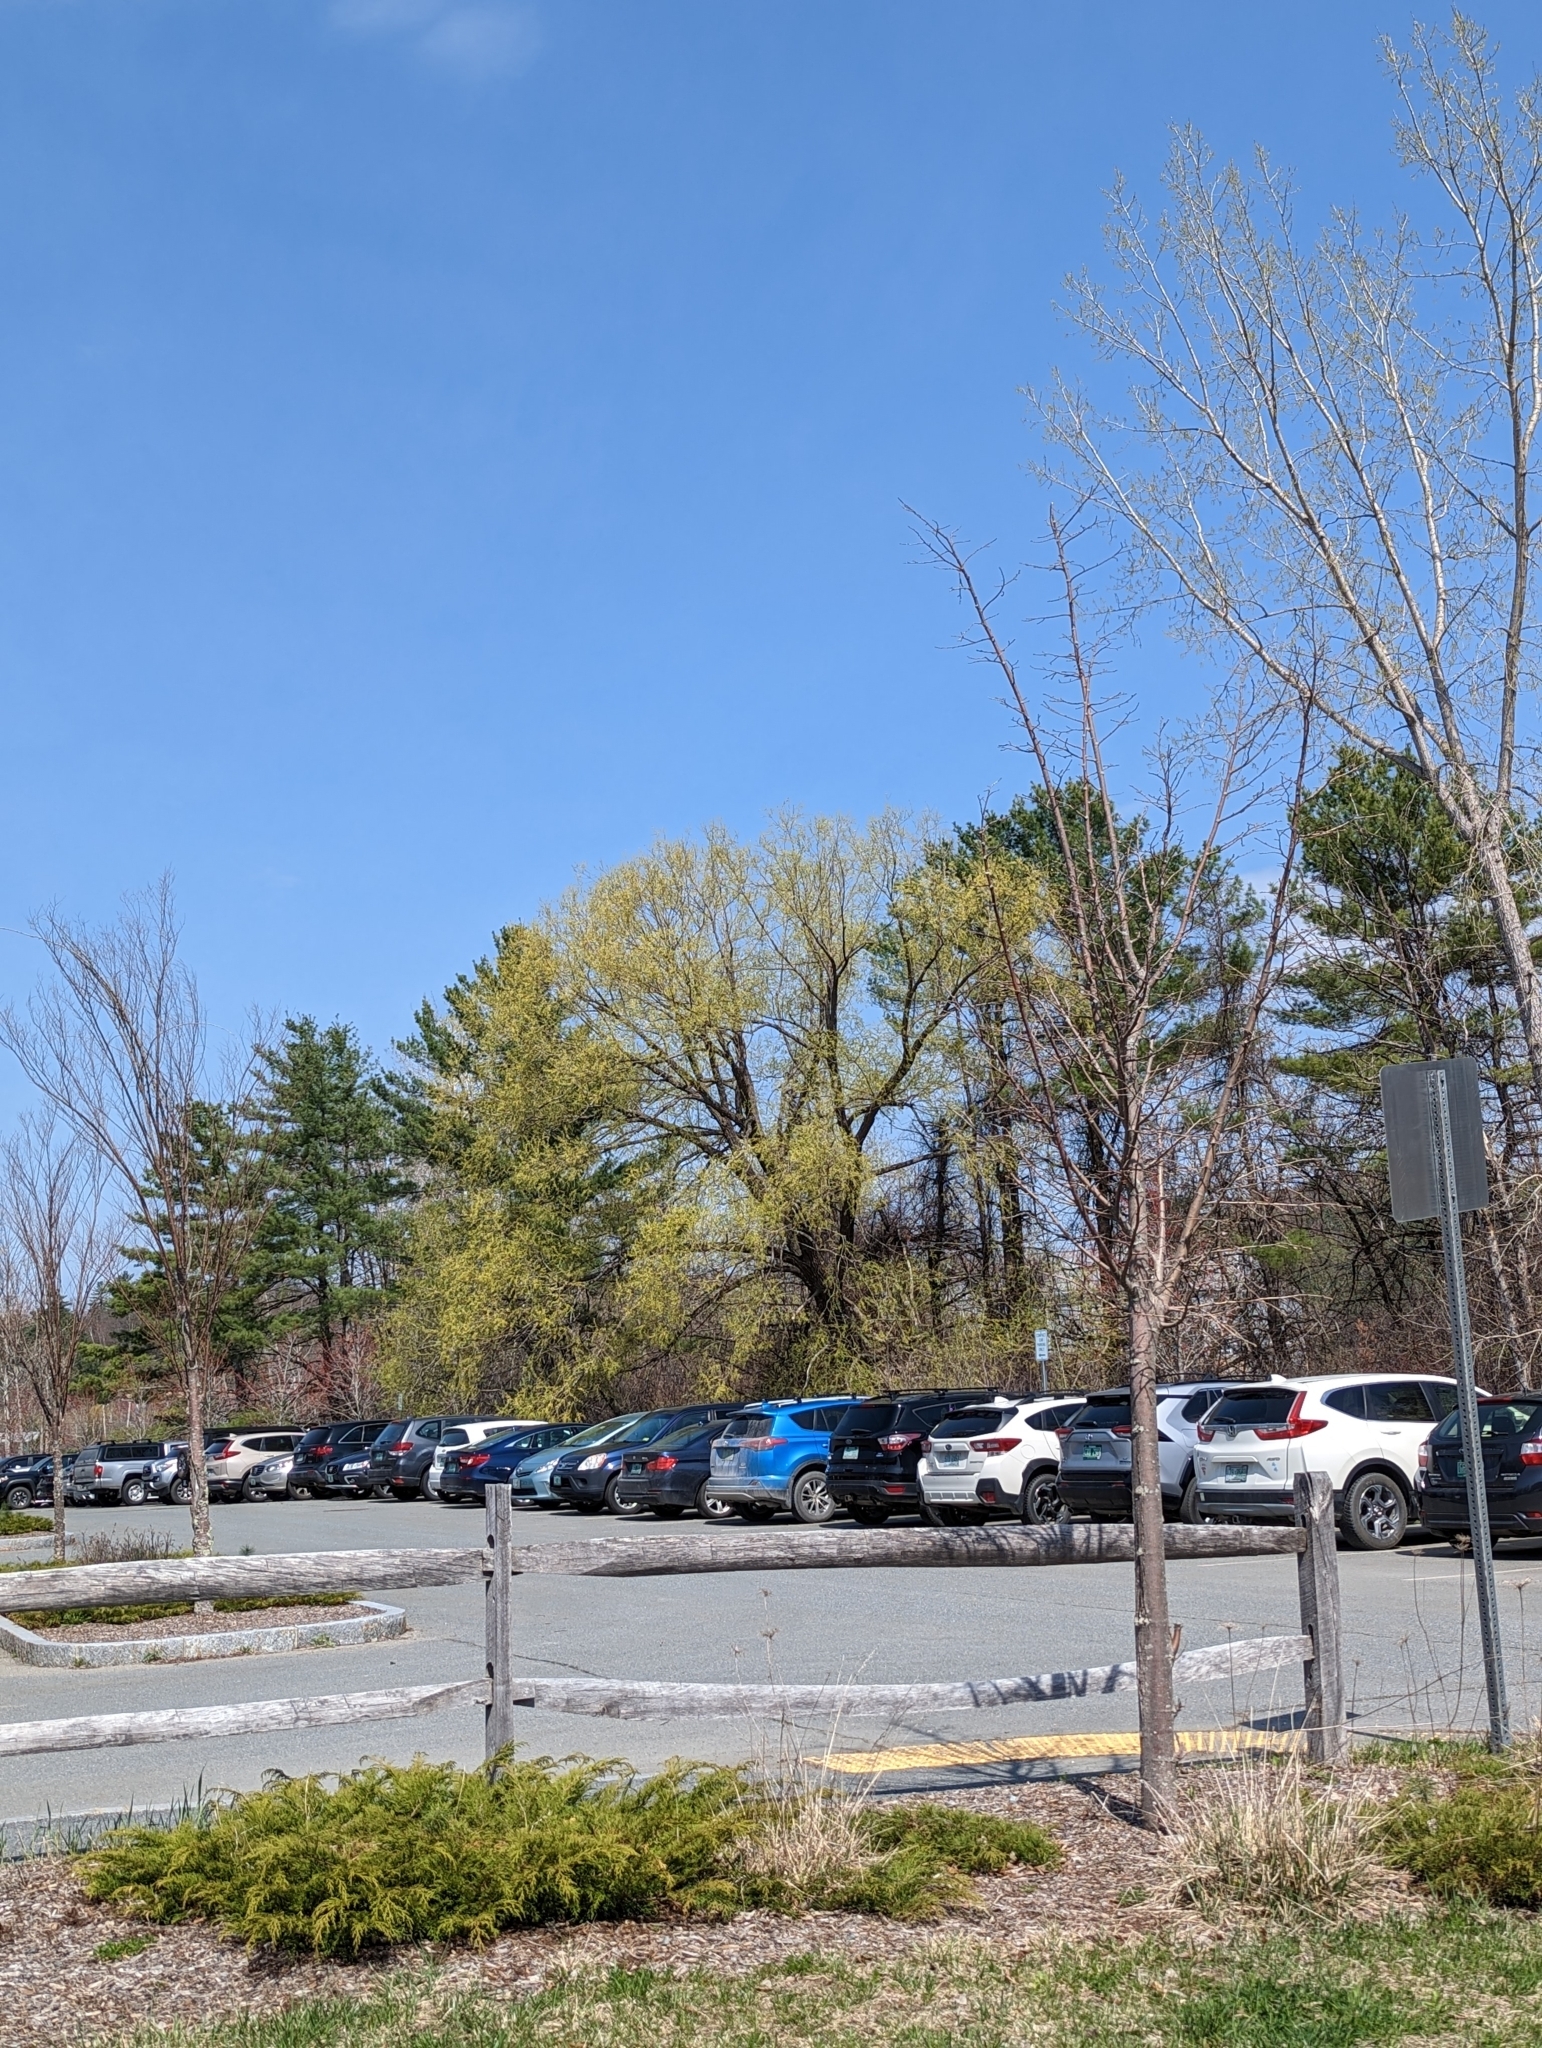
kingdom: Plantae
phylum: Tracheophyta
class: Pinopsida
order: Pinales
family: Pinaceae
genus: Pinus
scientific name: Pinus strobus
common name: Weymouth pine
